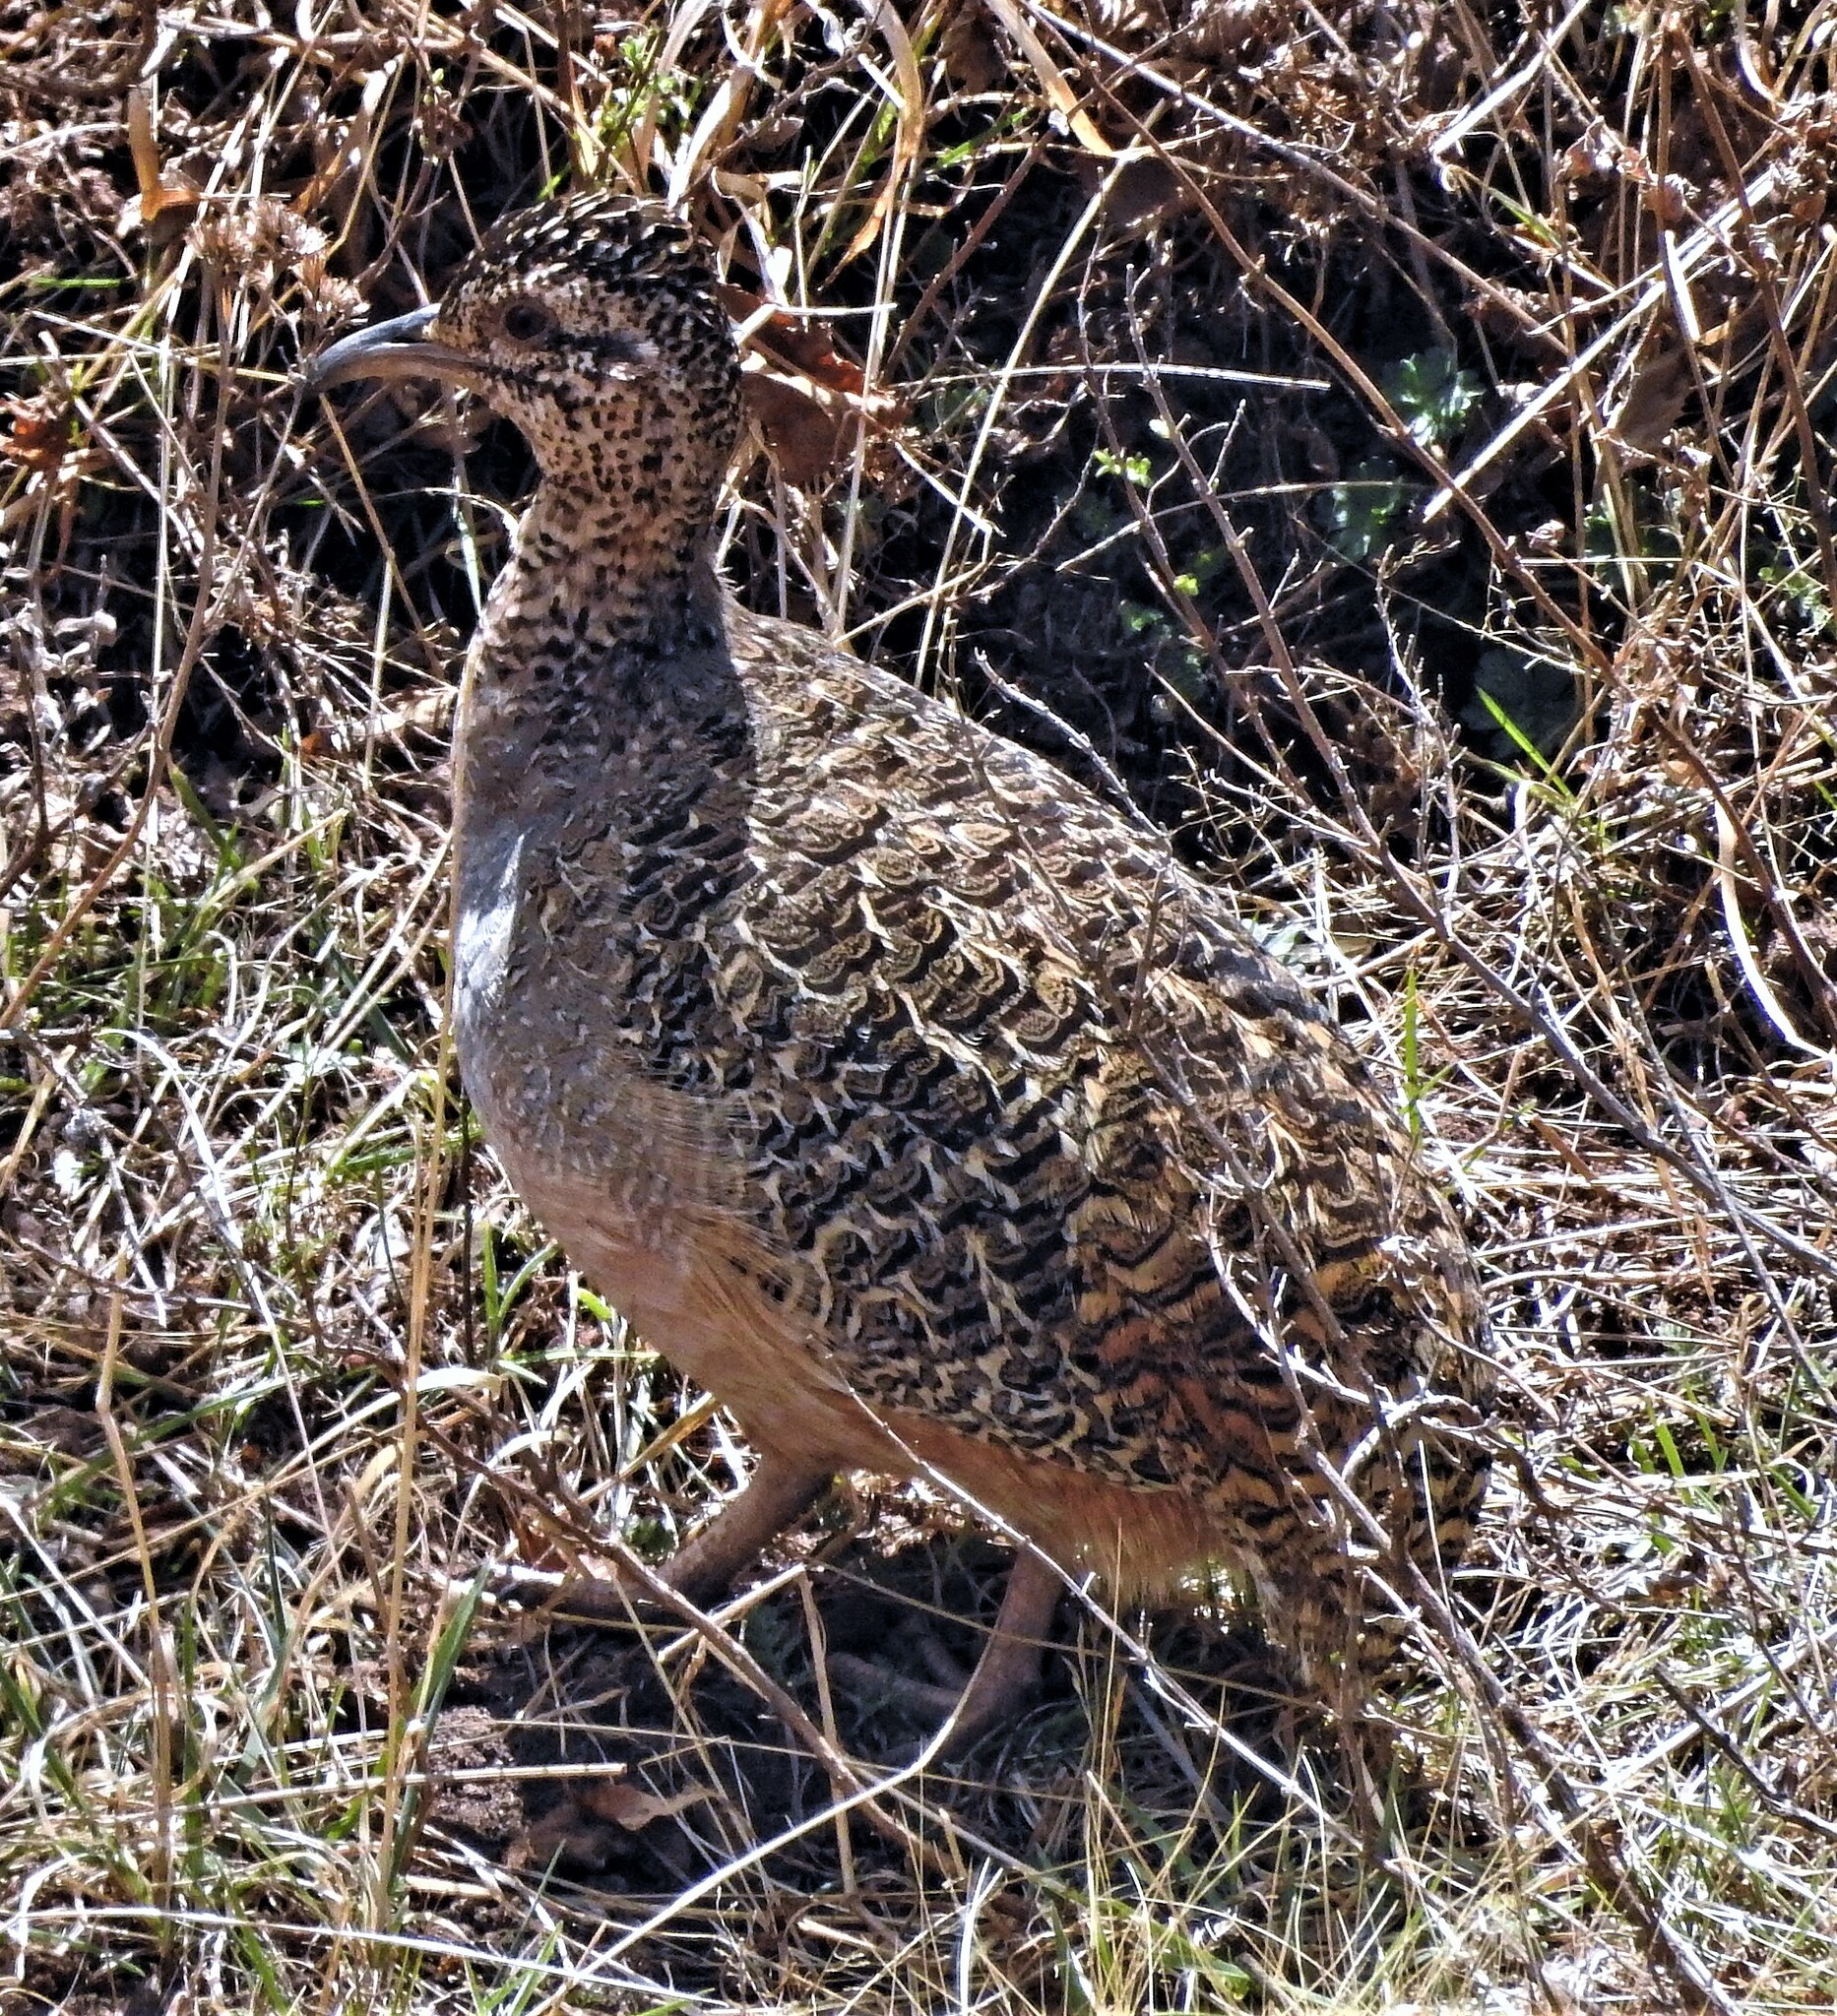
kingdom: Animalia
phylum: Chordata
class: Aves
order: Tinamiformes
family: Tinamidae
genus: Nothoprocta
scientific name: Nothoprocta ornata
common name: Ornate tinamou
